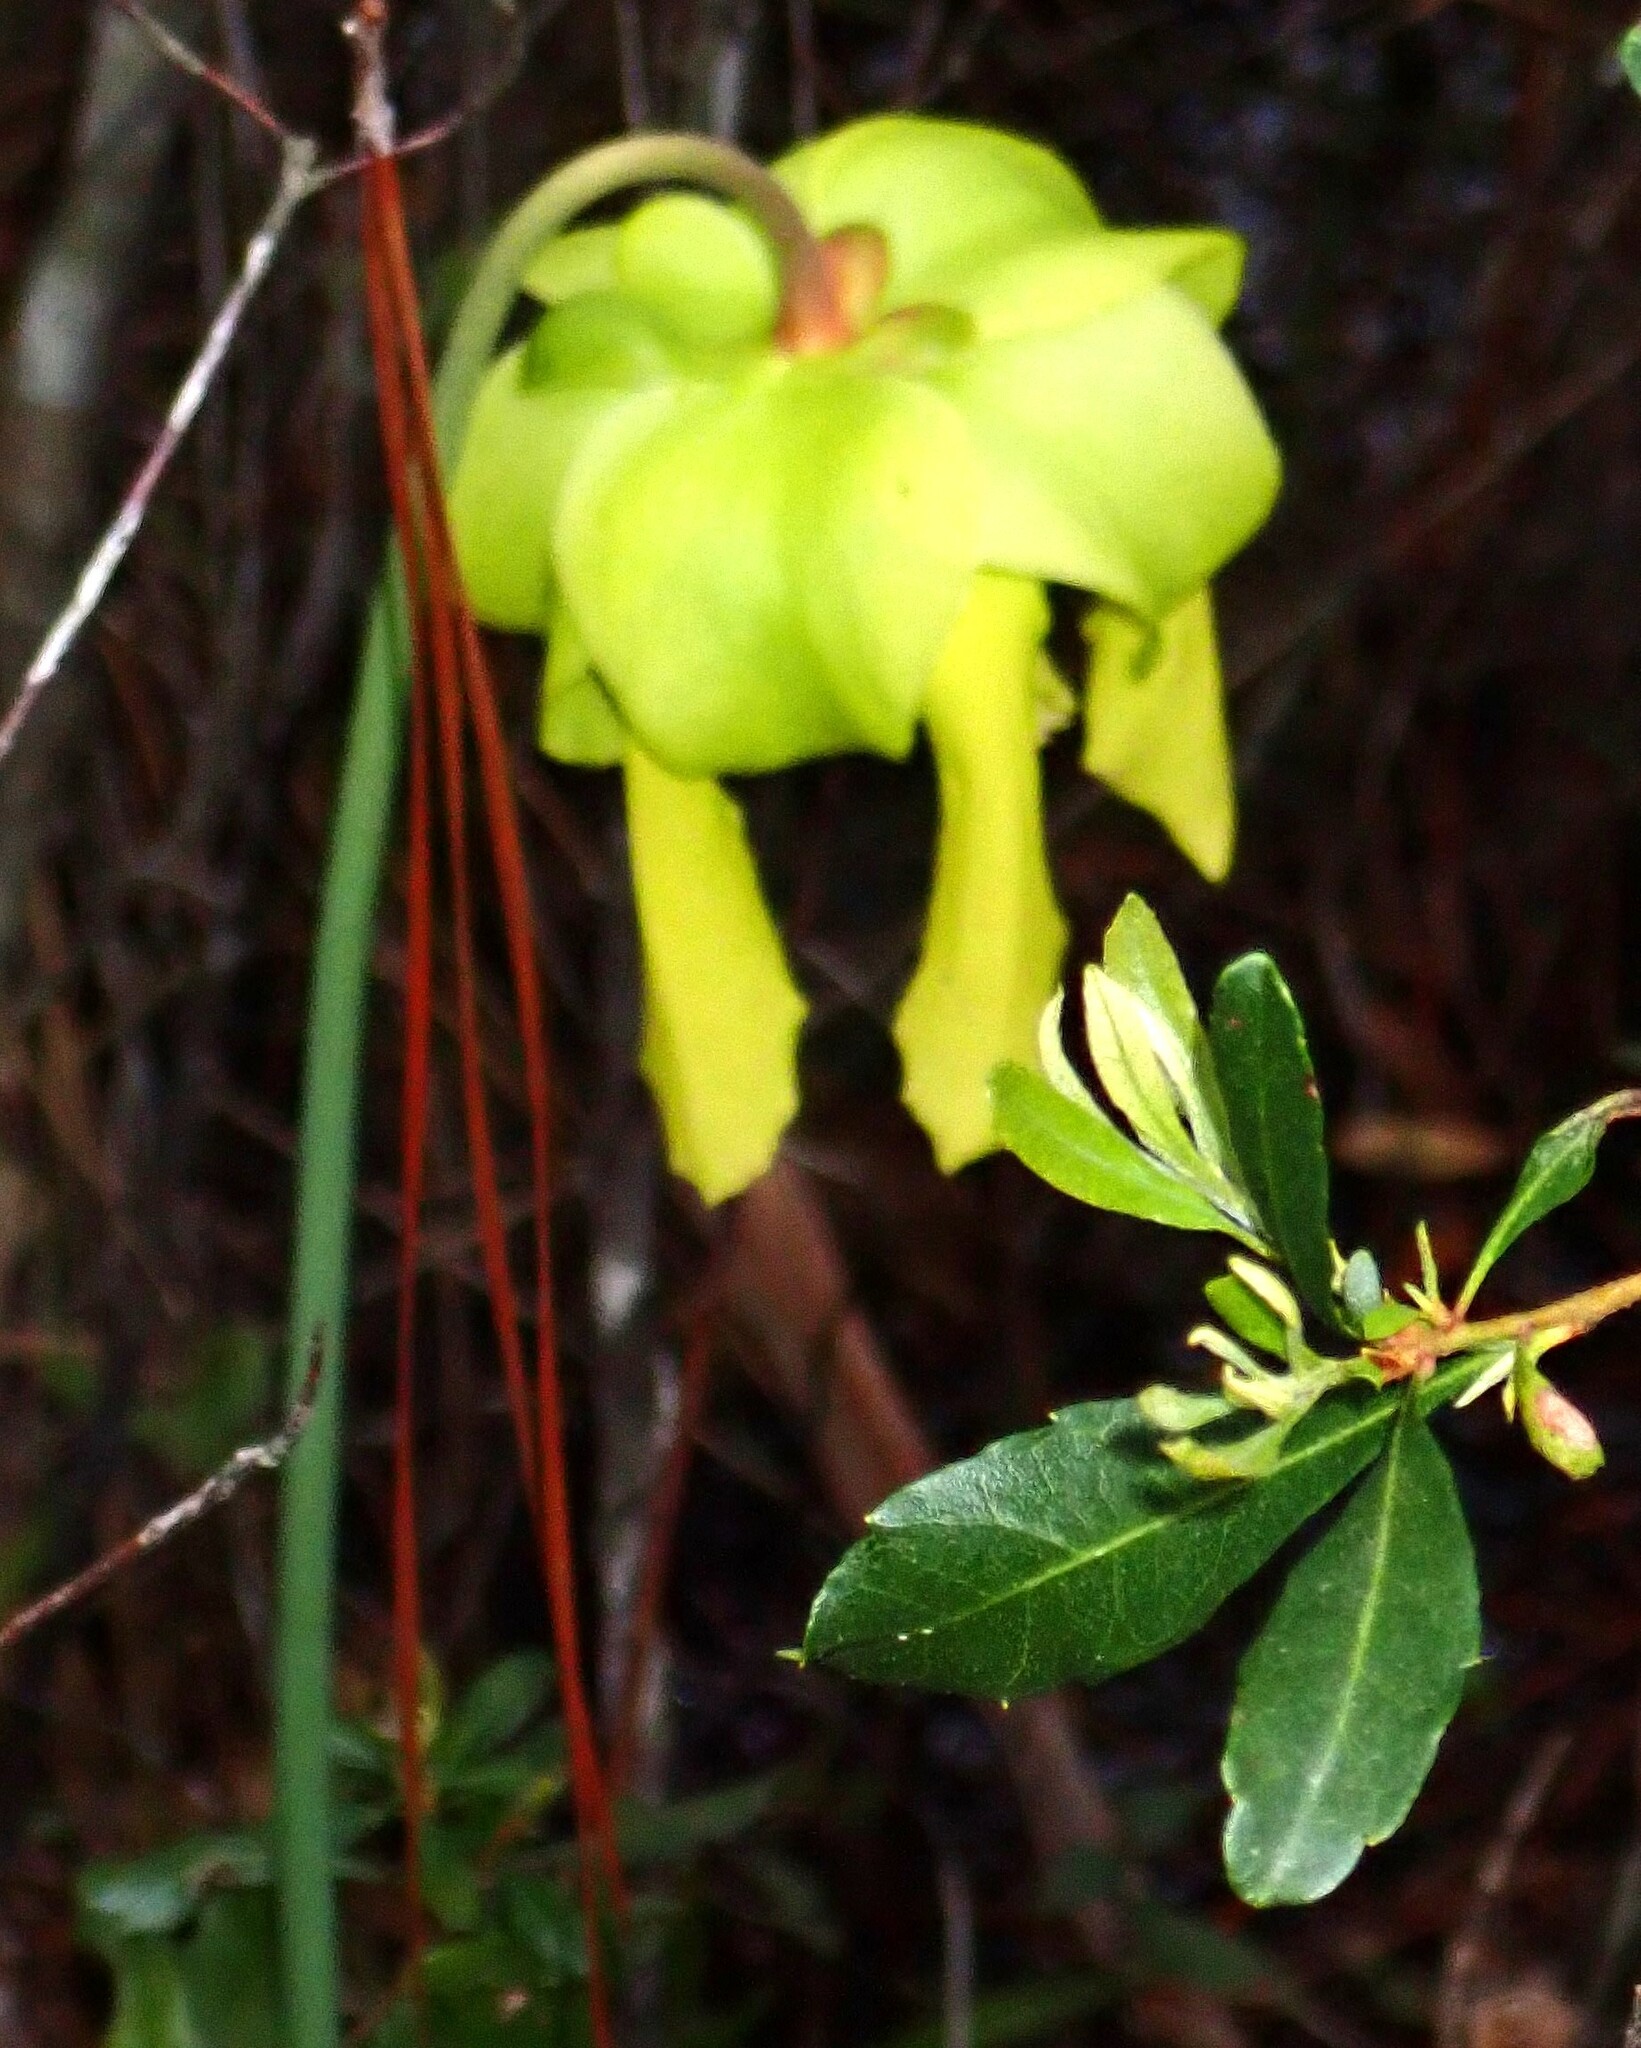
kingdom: Plantae
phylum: Tracheophyta
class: Magnoliopsida
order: Ericales
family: Sarraceniaceae
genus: Sarracenia
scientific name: Sarracenia flava
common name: Trumpets
